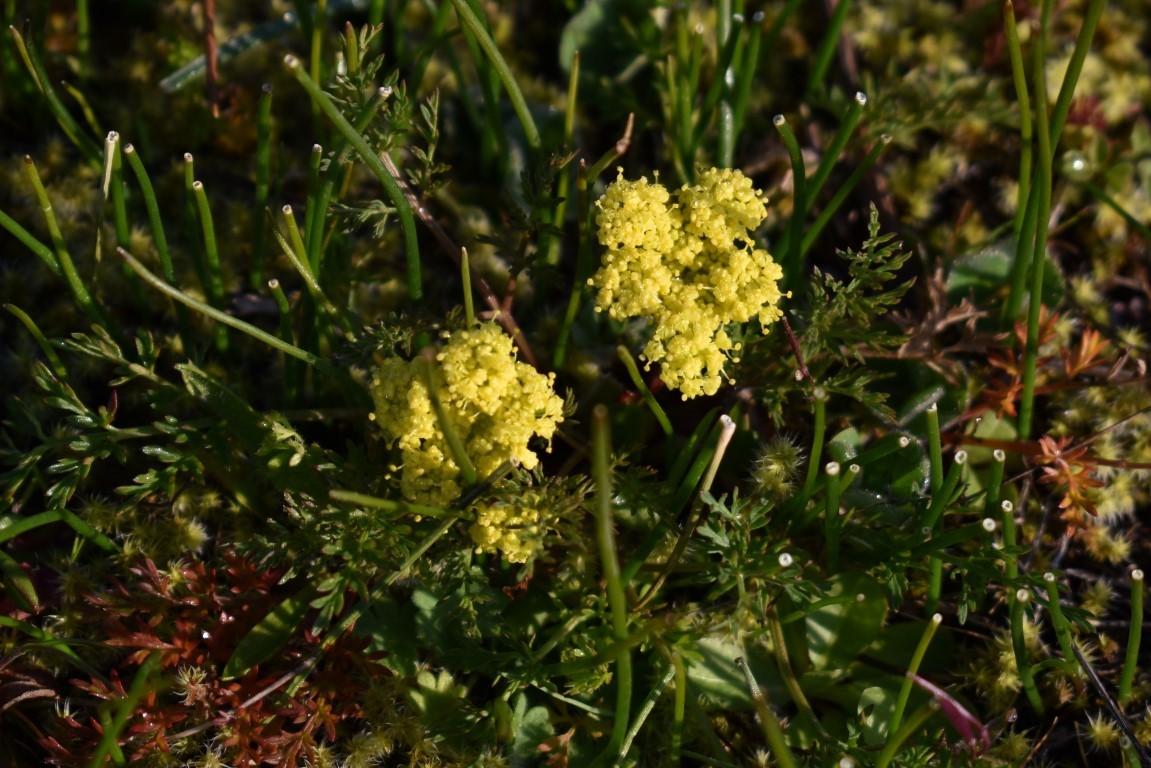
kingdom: Plantae
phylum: Tracheophyta
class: Magnoliopsida
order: Apiales
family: Apiaceae
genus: Lomatium
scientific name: Lomatium utriculatum
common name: Fine-leaf desert-parsley
